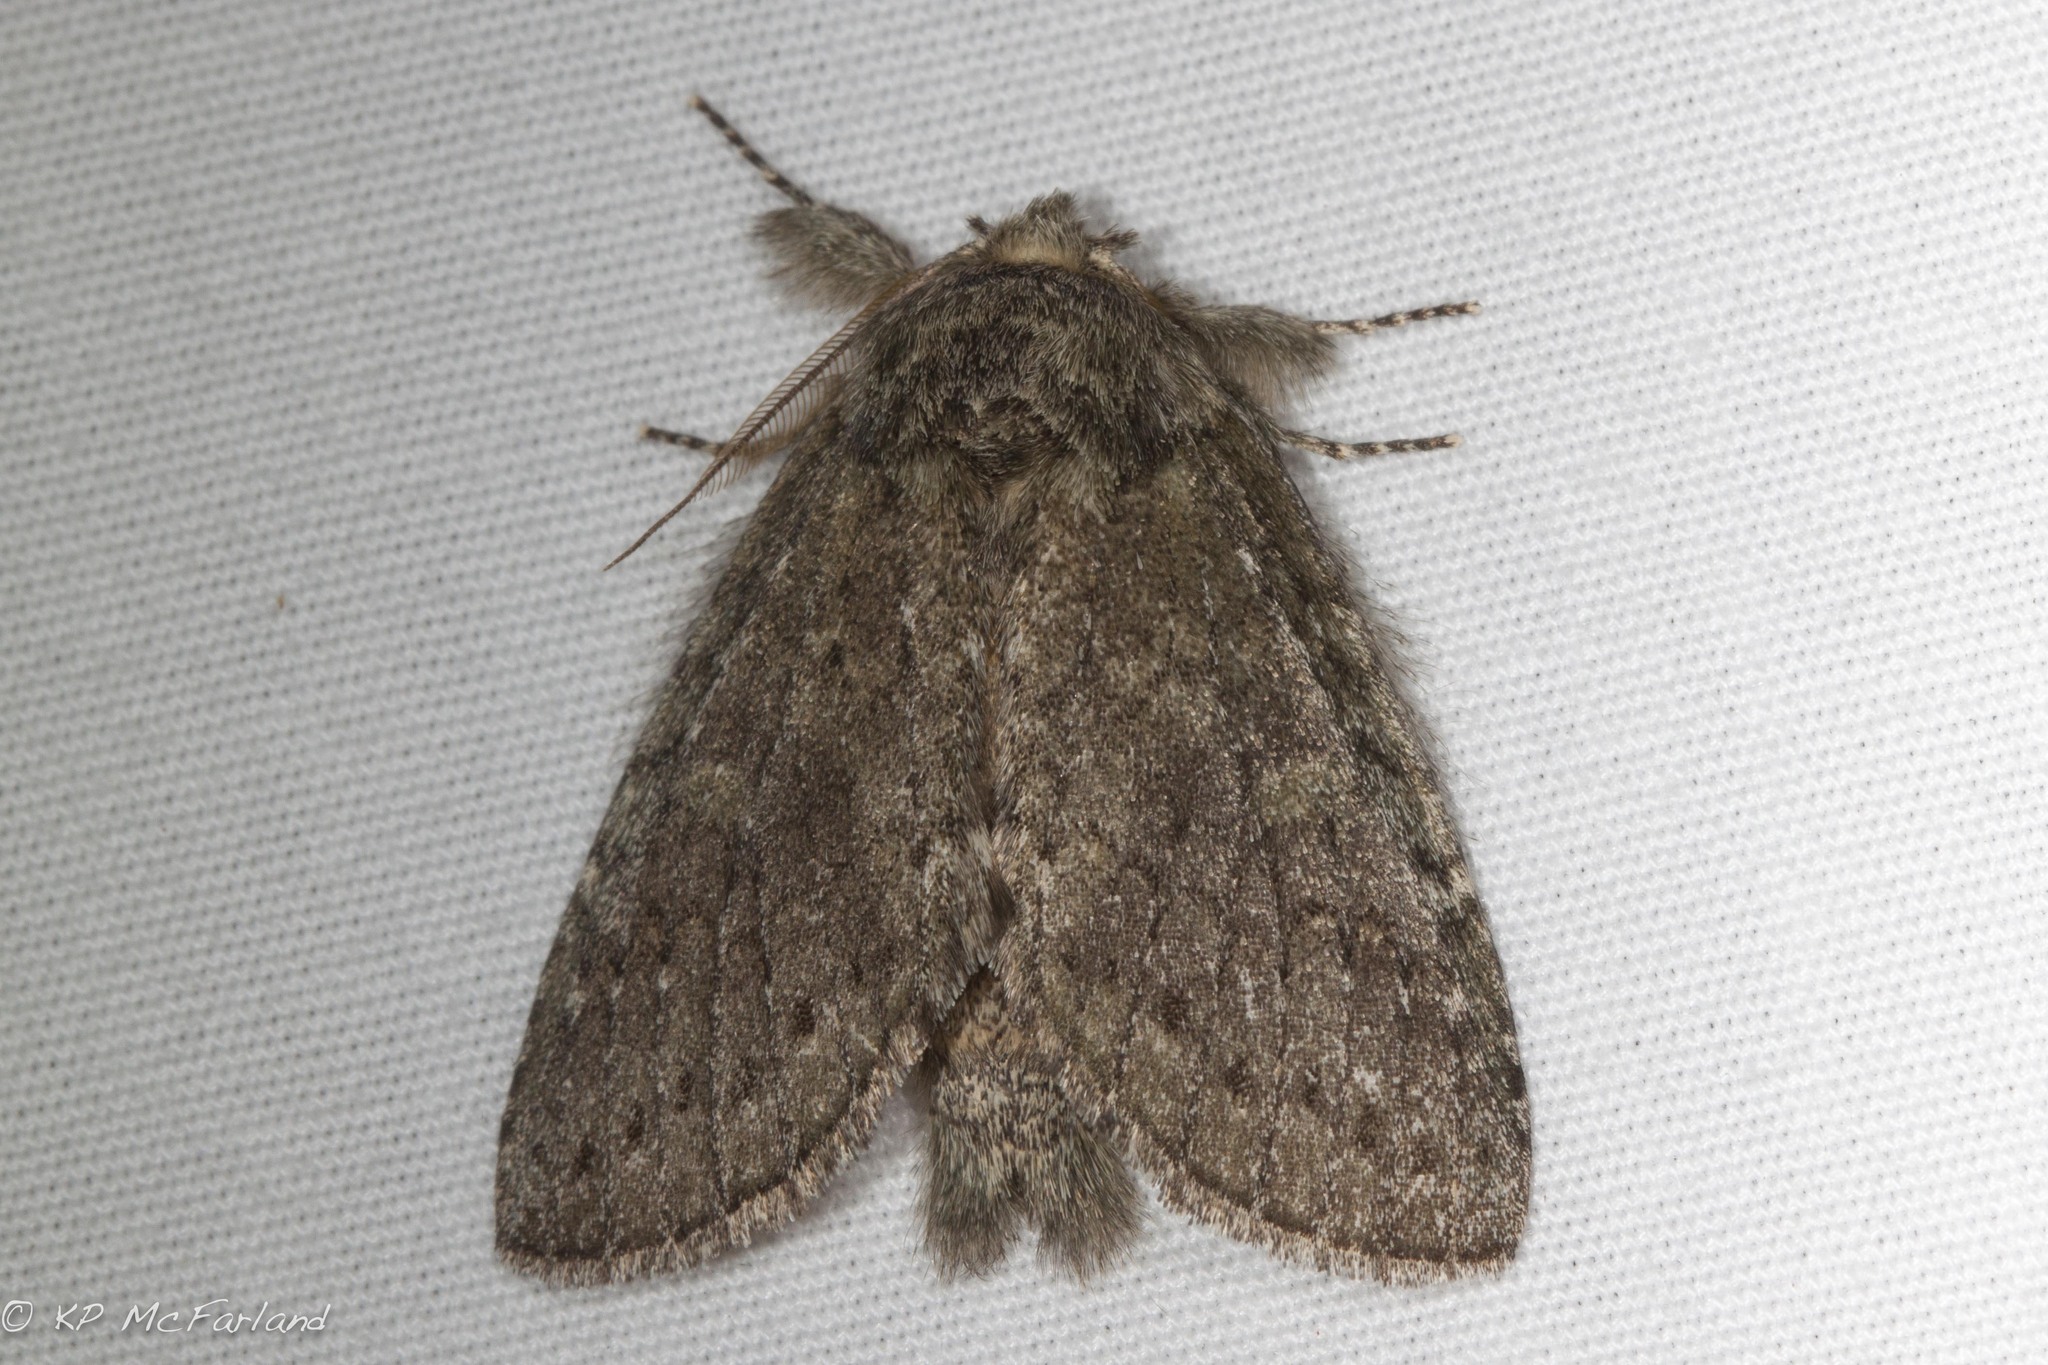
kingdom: Animalia
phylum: Arthropoda
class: Insecta
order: Lepidoptera
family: Notodontidae
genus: Disphragis
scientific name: Disphragis Cecrita guttivitta
